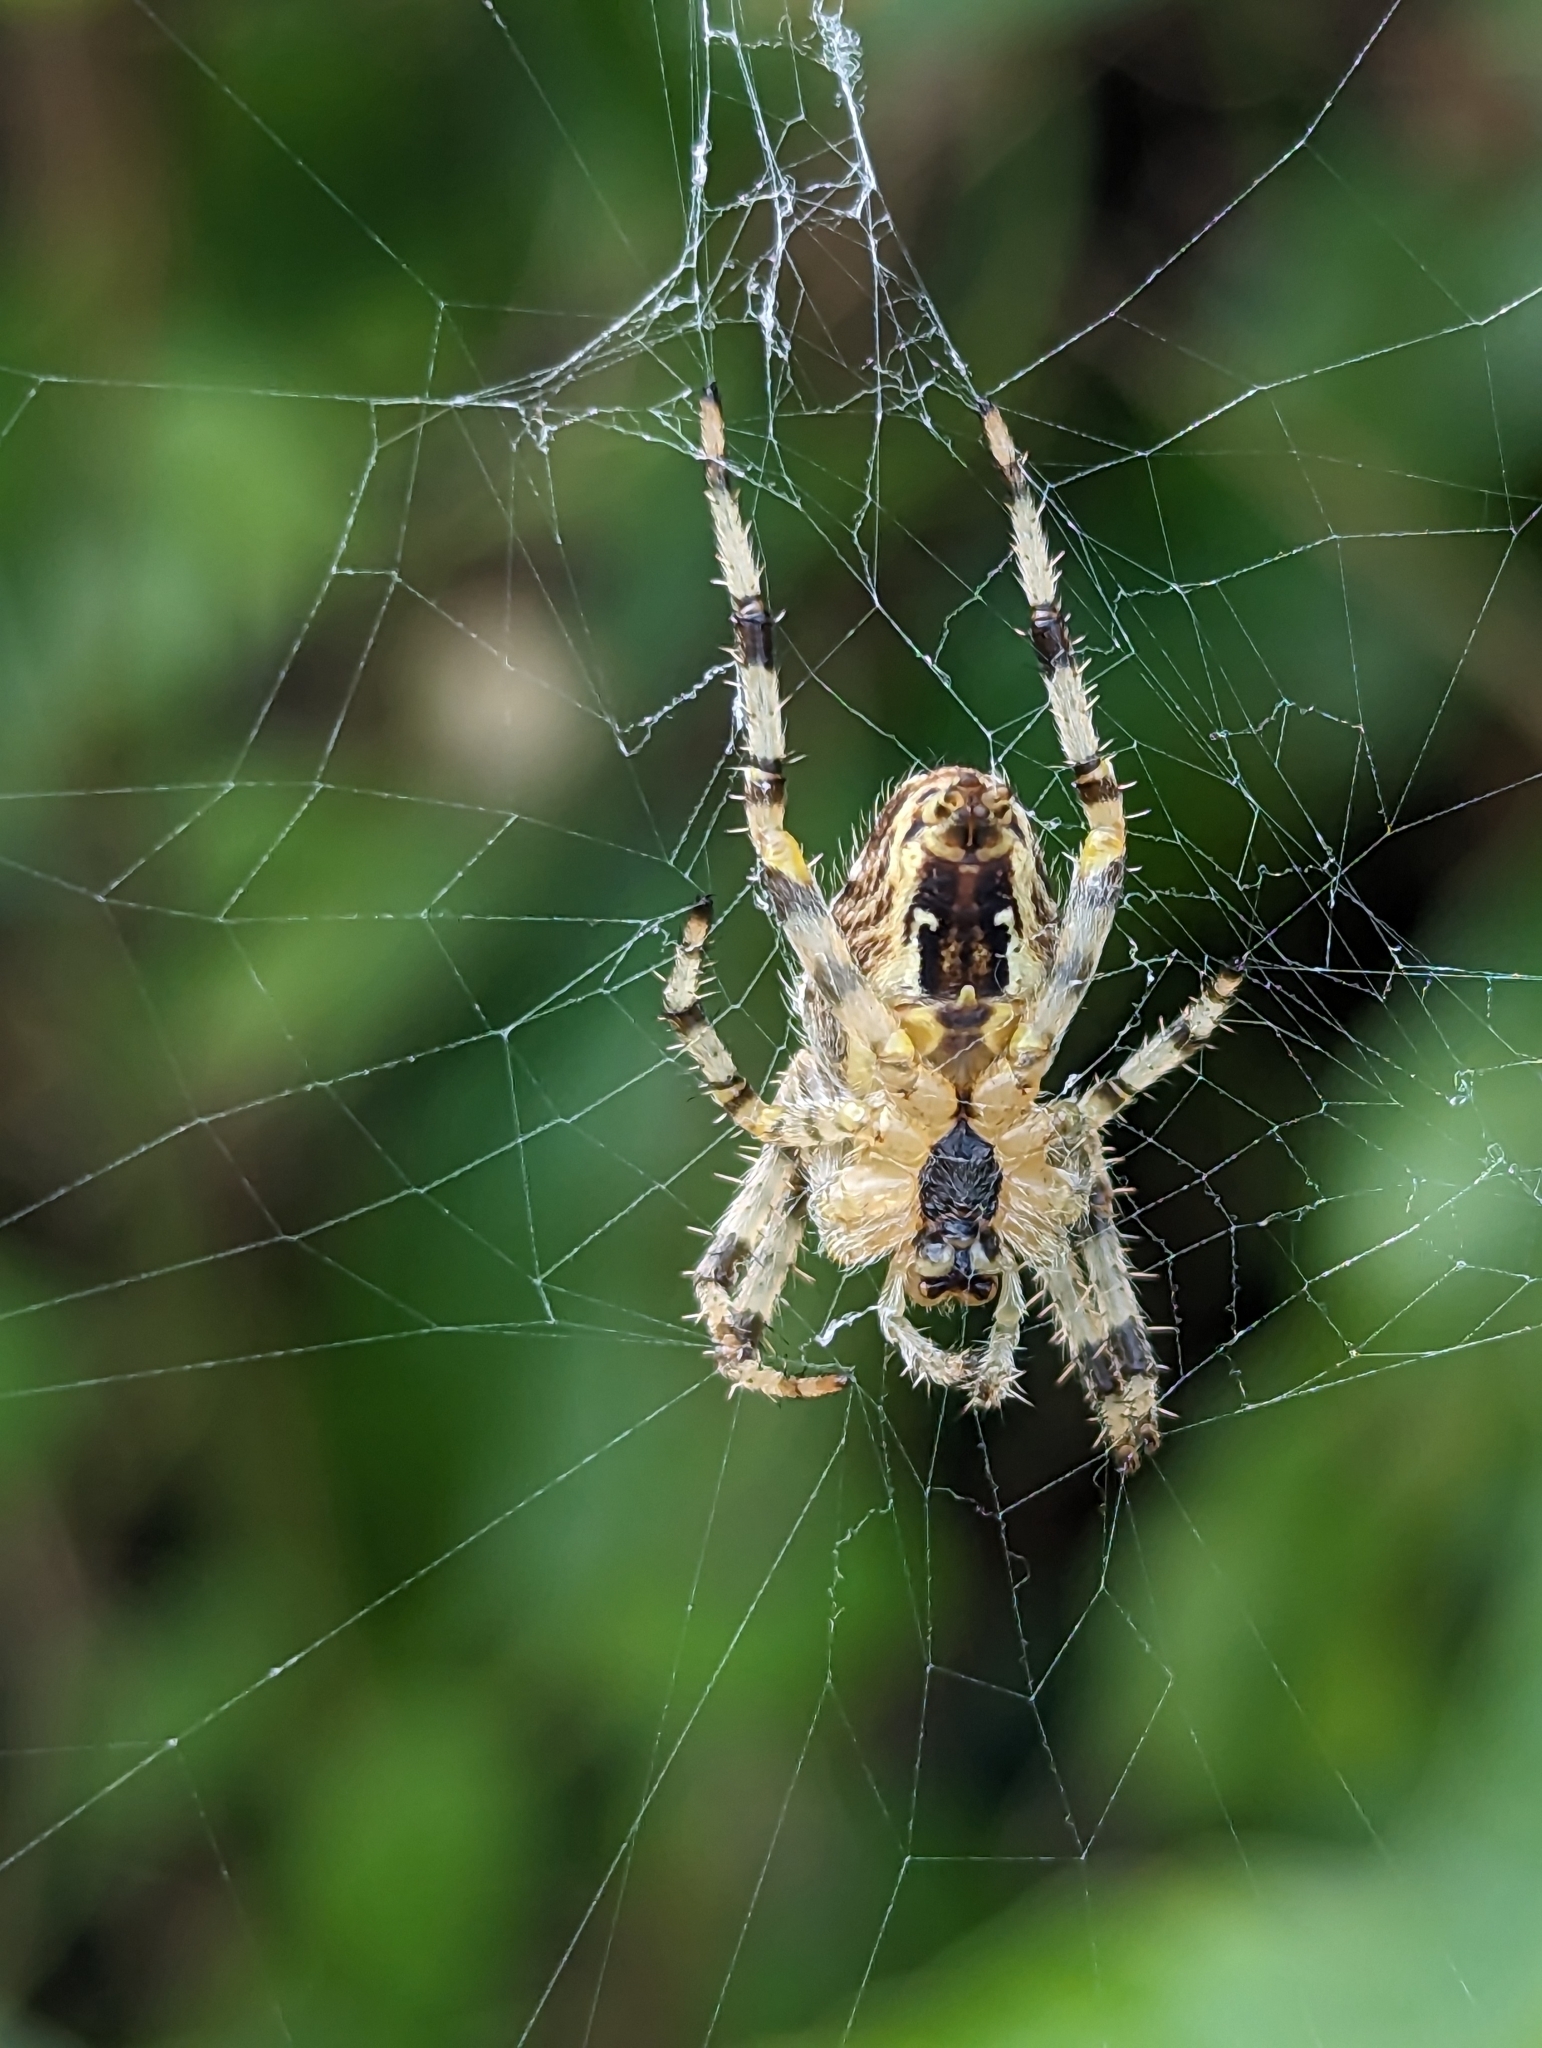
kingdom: Animalia
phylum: Arthropoda
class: Arachnida
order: Araneae
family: Araneidae
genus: Araneus
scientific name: Araneus diadematus
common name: Cross orbweaver
